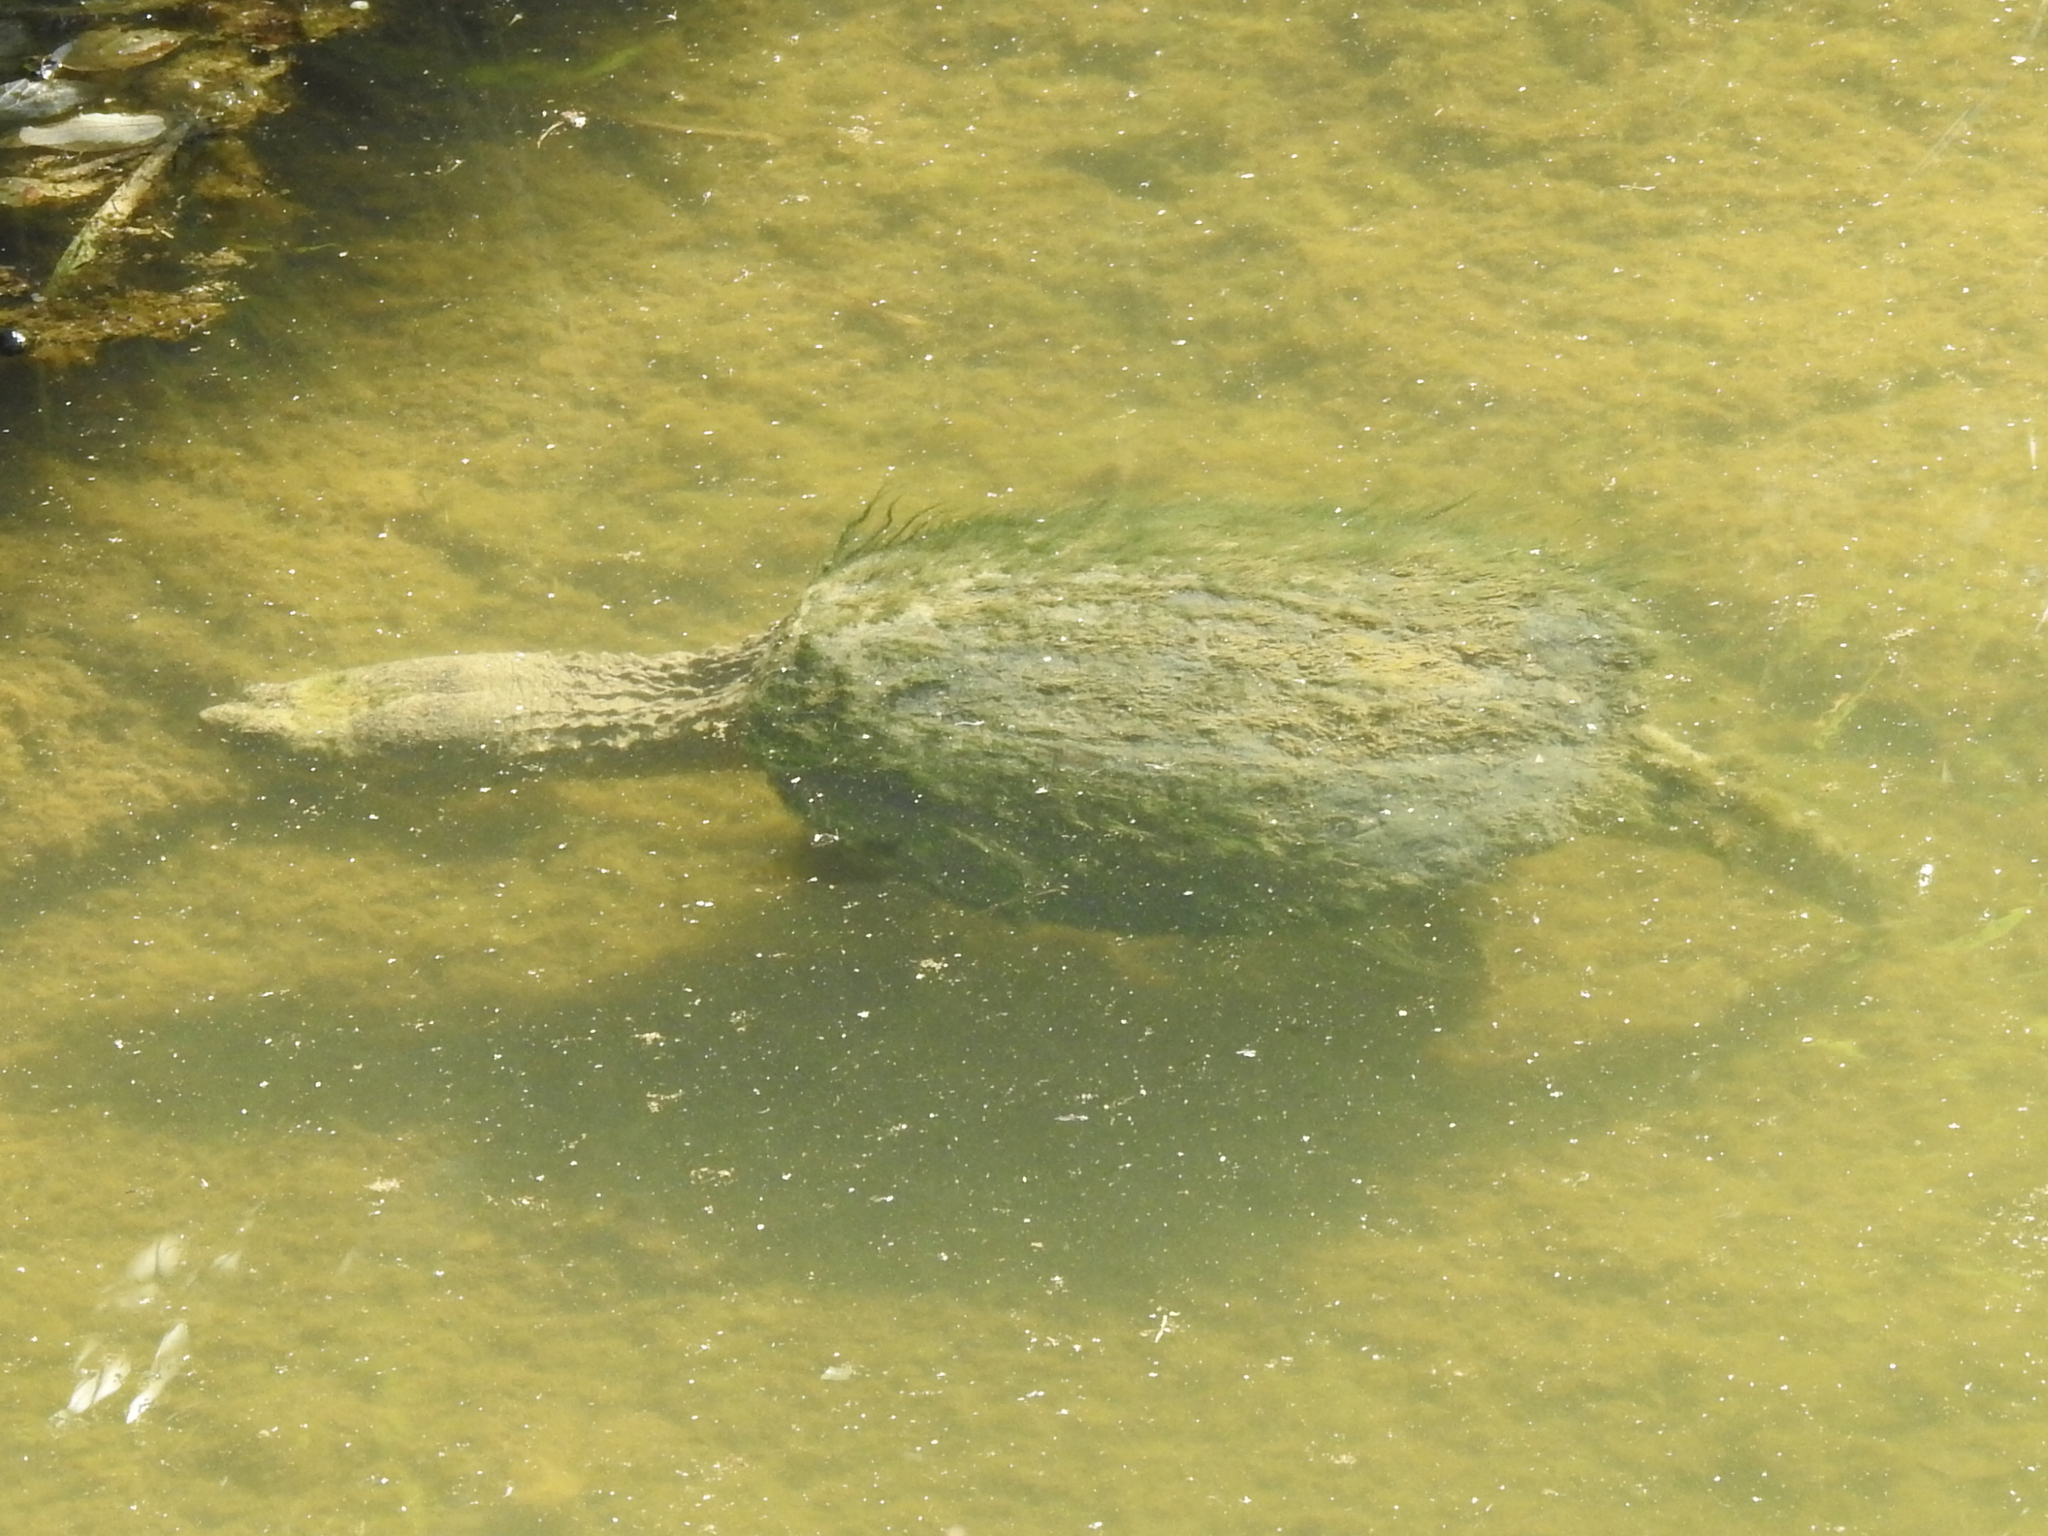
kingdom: Animalia
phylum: Chordata
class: Testudines
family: Chelydridae
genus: Chelydra
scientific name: Chelydra serpentina
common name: Common snapping turtle
